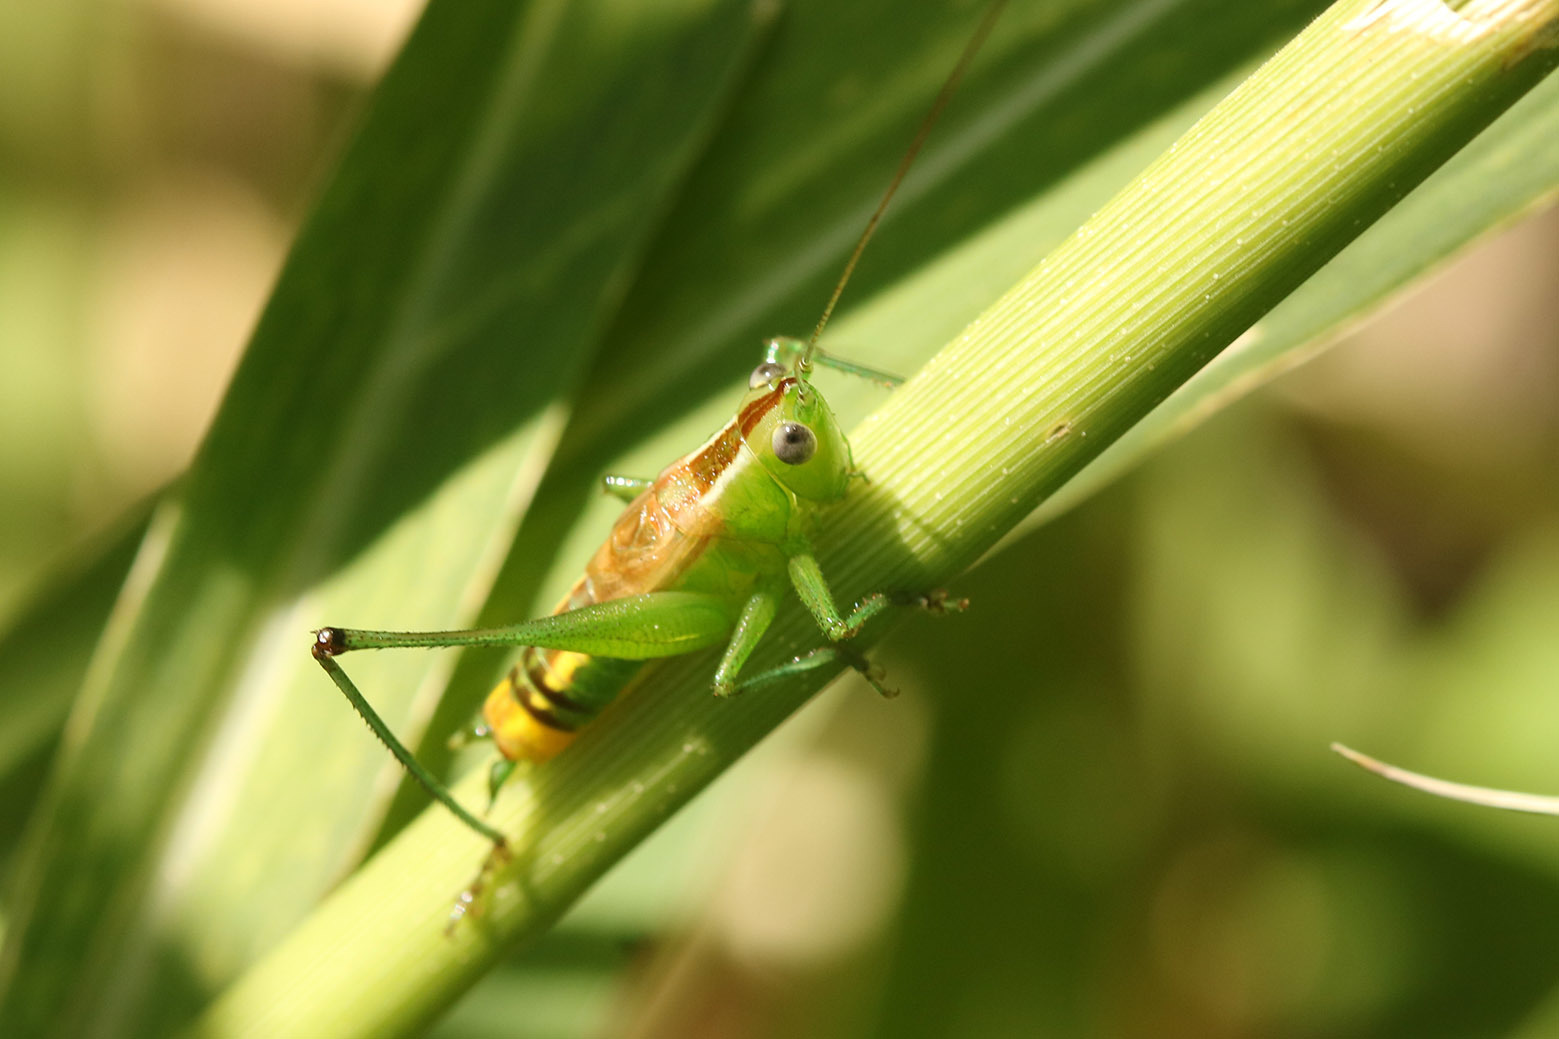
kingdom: Animalia
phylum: Arthropoda
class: Insecta
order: Orthoptera
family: Tettigoniidae
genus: Conocephalus
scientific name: Conocephalus ochrotelus
